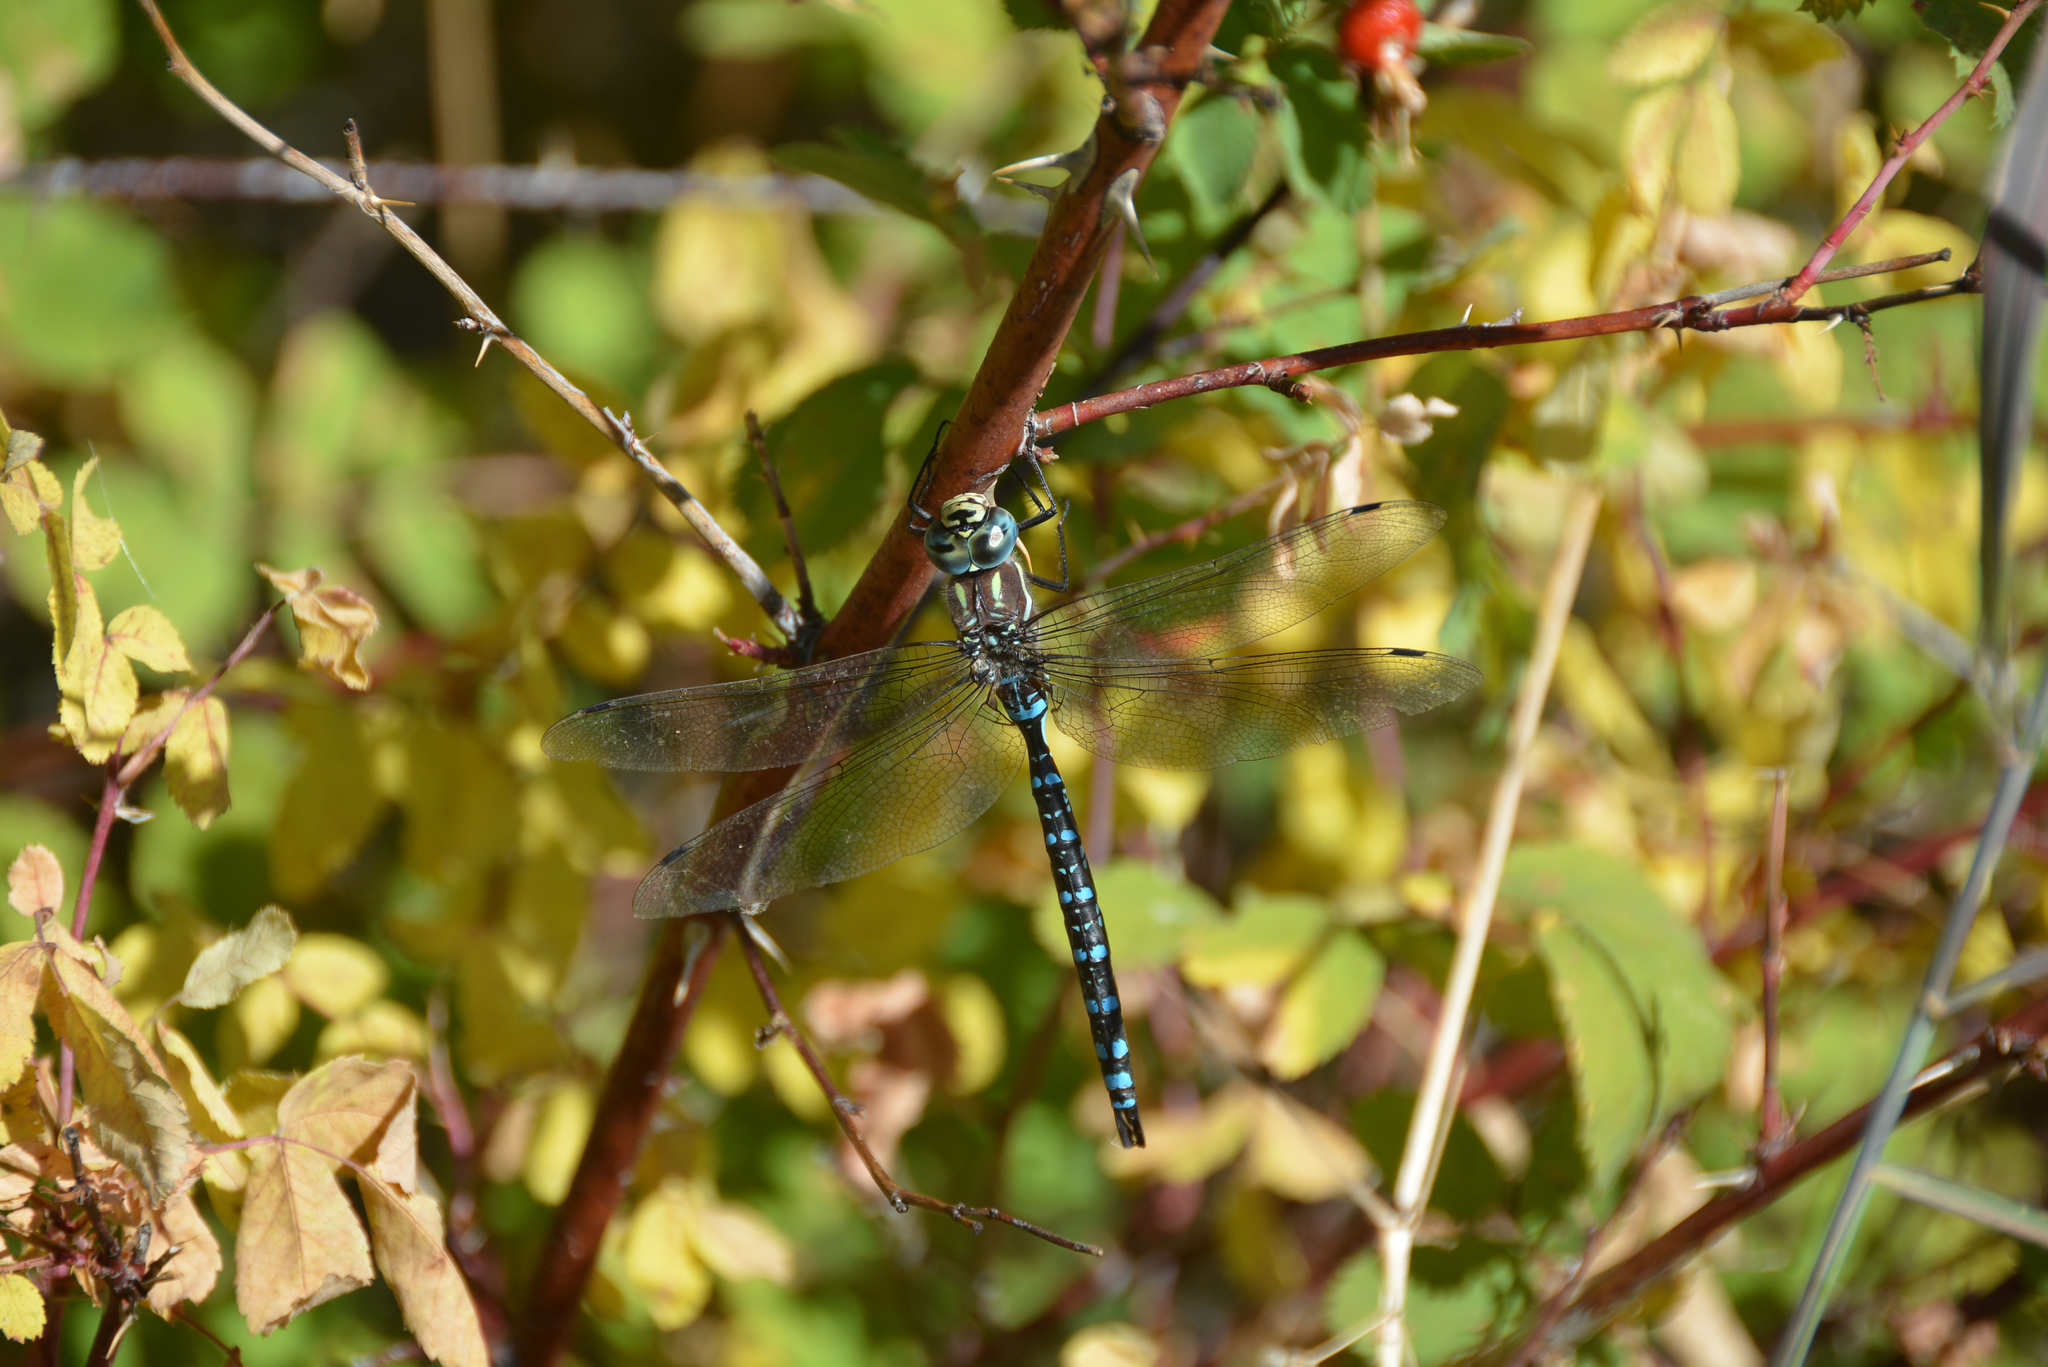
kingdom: Animalia
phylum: Arthropoda
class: Insecta
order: Odonata
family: Aeshnidae
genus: Aeshna
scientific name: Aeshna palmata
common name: Paddle-tailed darner
